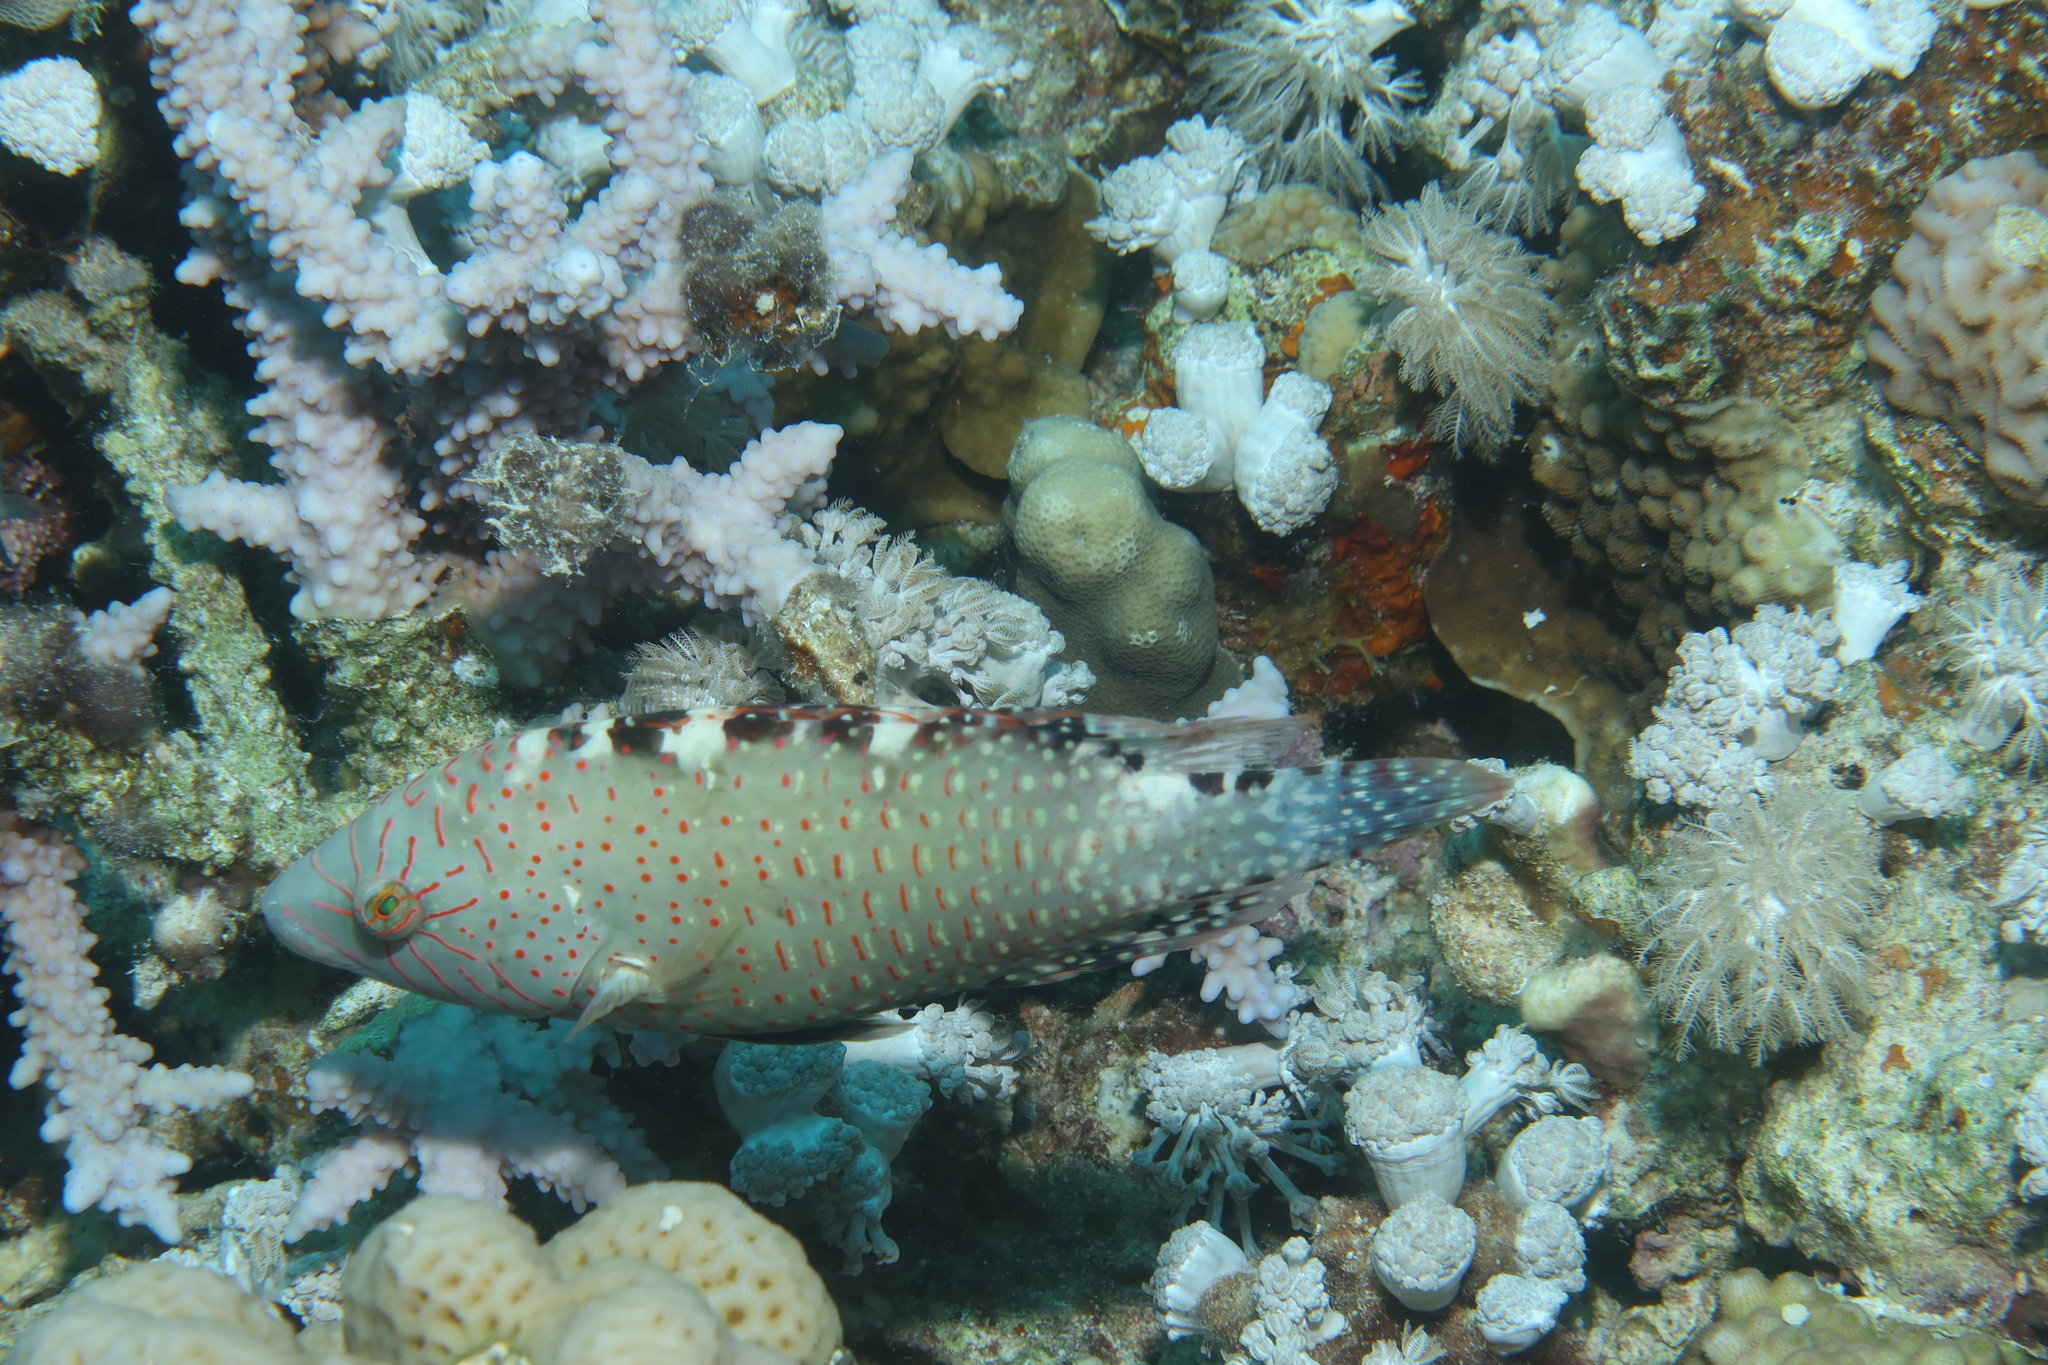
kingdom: Animalia
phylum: Chordata
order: Perciformes
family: Labridae
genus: Cheilinus
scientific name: Cheilinus abudjubbe
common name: Abudjubbe’s splendor wrasse
